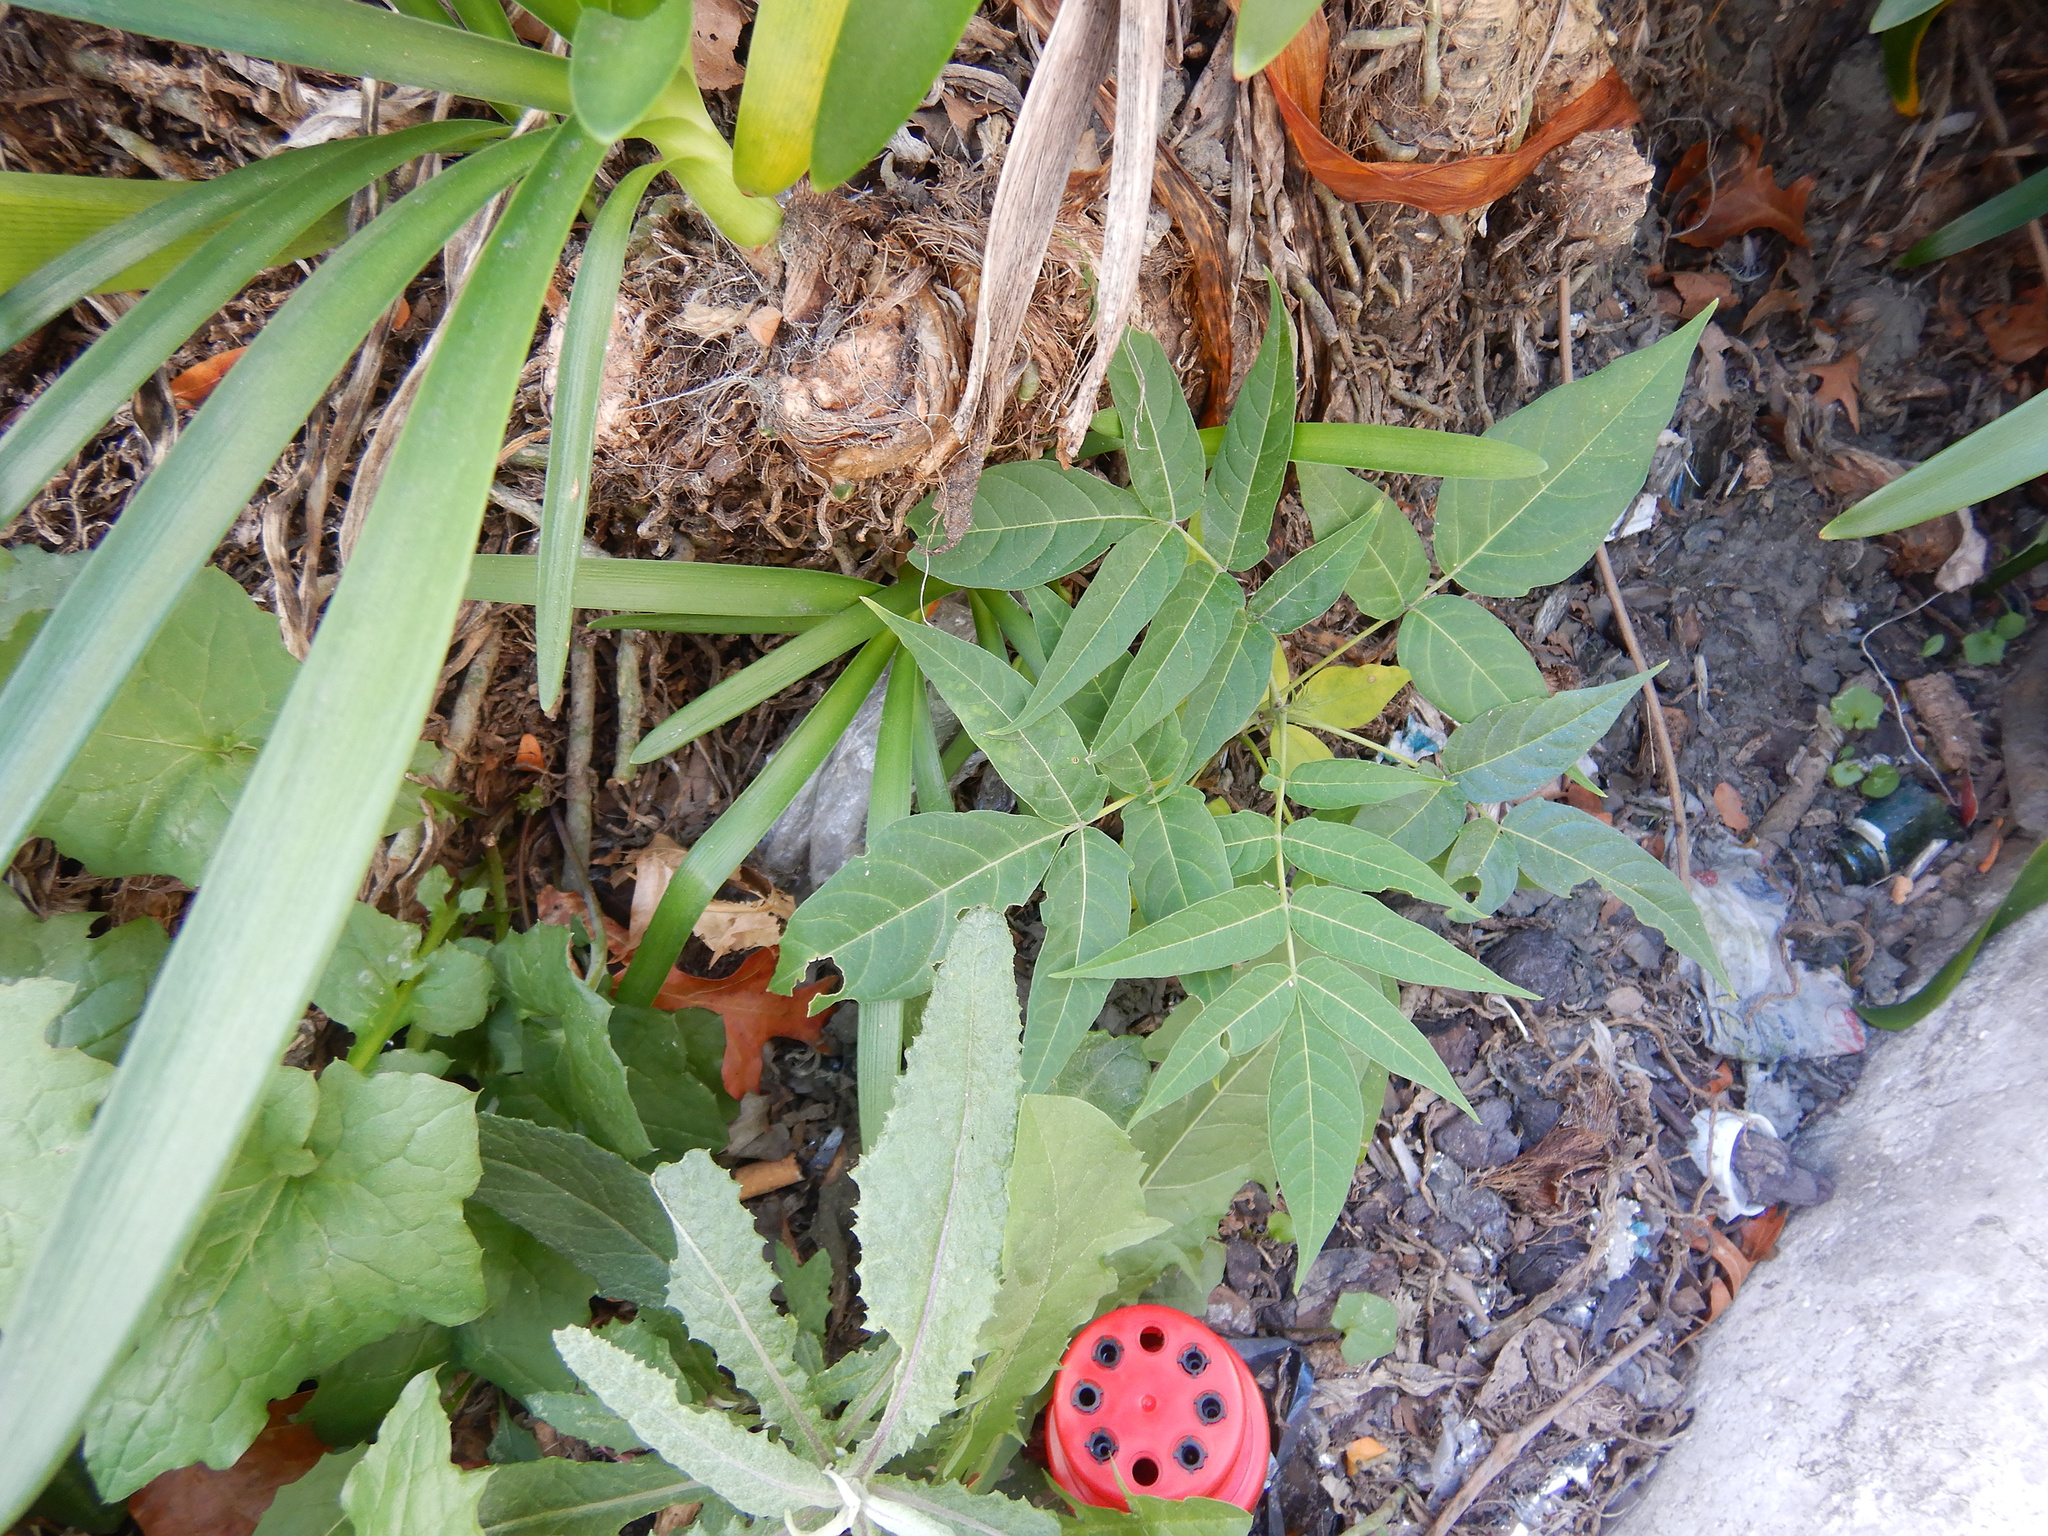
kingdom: Plantae
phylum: Tracheophyta
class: Magnoliopsida
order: Sapindales
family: Simaroubaceae
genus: Ailanthus
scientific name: Ailanthus altissima
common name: Tree-of-heaven
